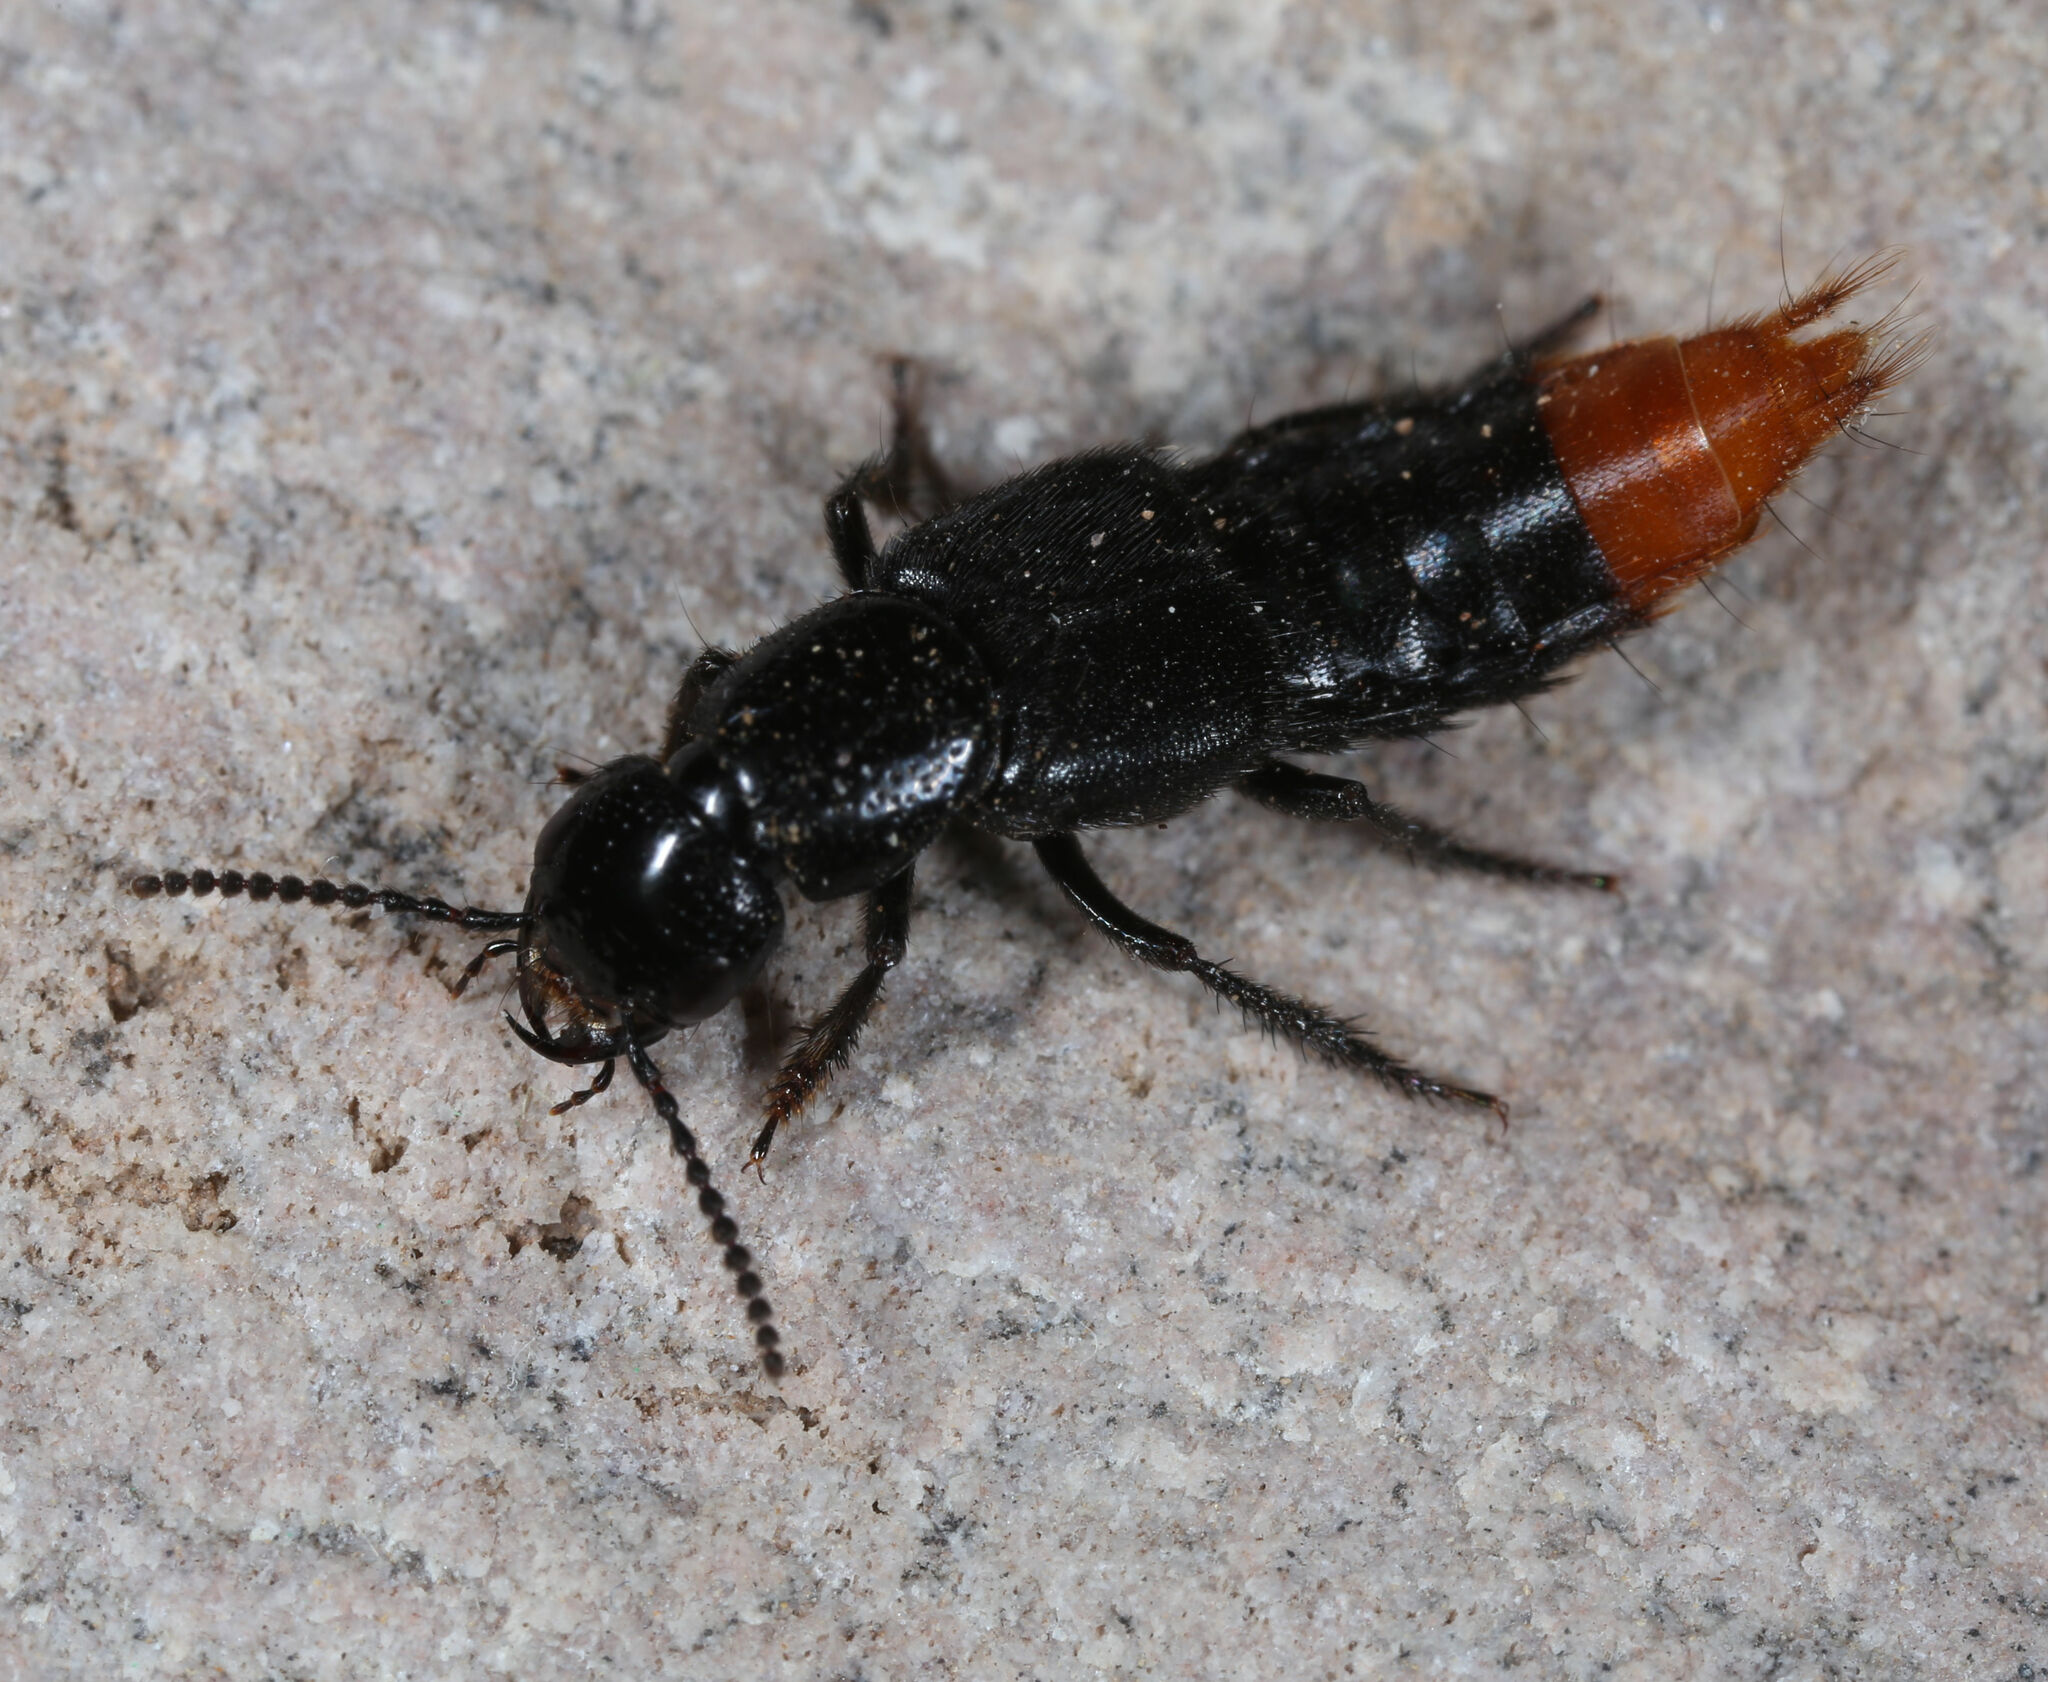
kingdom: Animalia
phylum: Arthropoda
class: Insecta
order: Coleoptera
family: Staphylinidae
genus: Xanthopygus
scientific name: Xanthopygus xanthopygus
